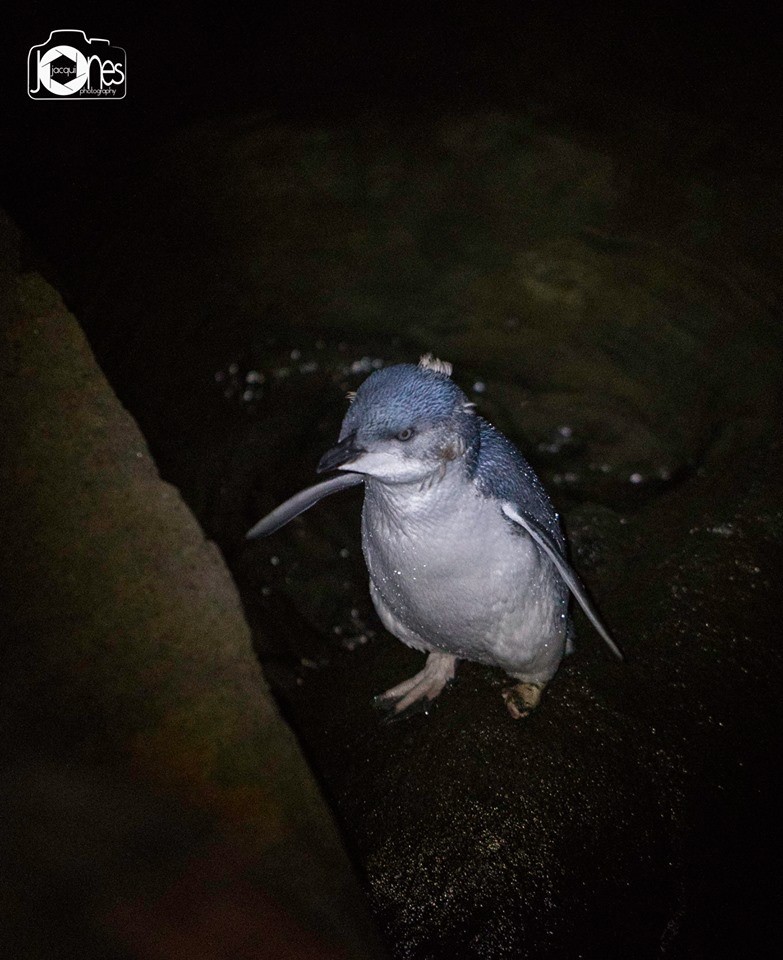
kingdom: Animalia
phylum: Chordata
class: Aves
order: Sphenisciformes
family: Spheniscidae
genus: Eudyptula
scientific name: Eudyptula minor
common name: Little penguin
